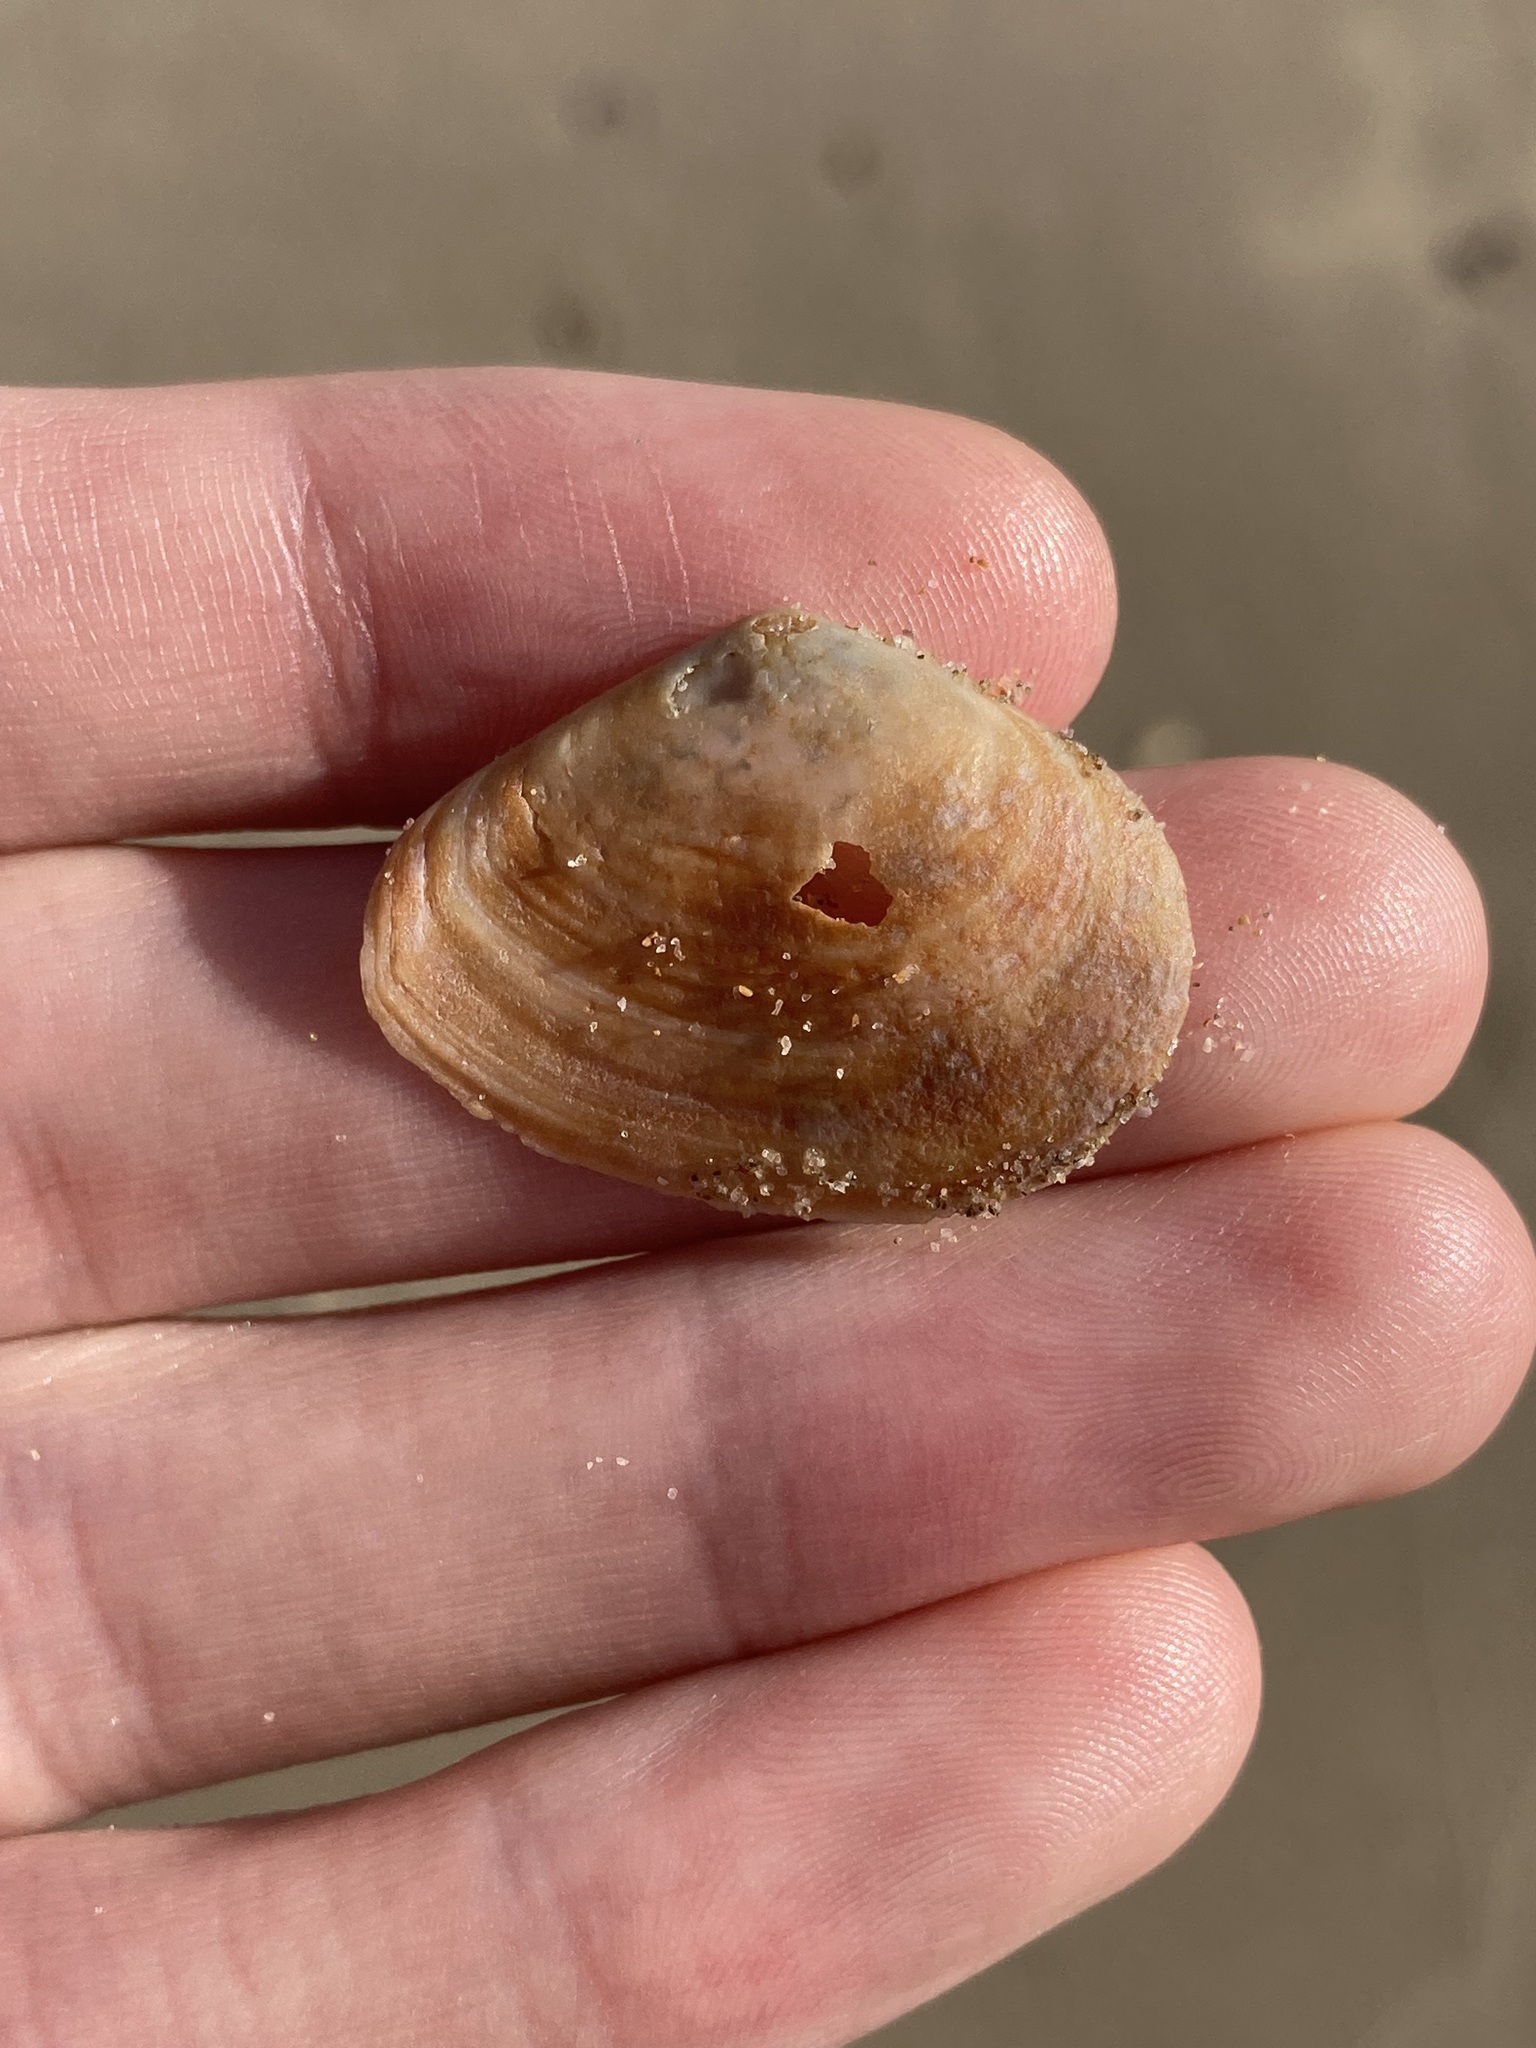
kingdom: Animalia
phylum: Mollusca
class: Bivalvia
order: Cardiida
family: Tellinidae
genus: Macomona
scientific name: Macomona deltoidalis
